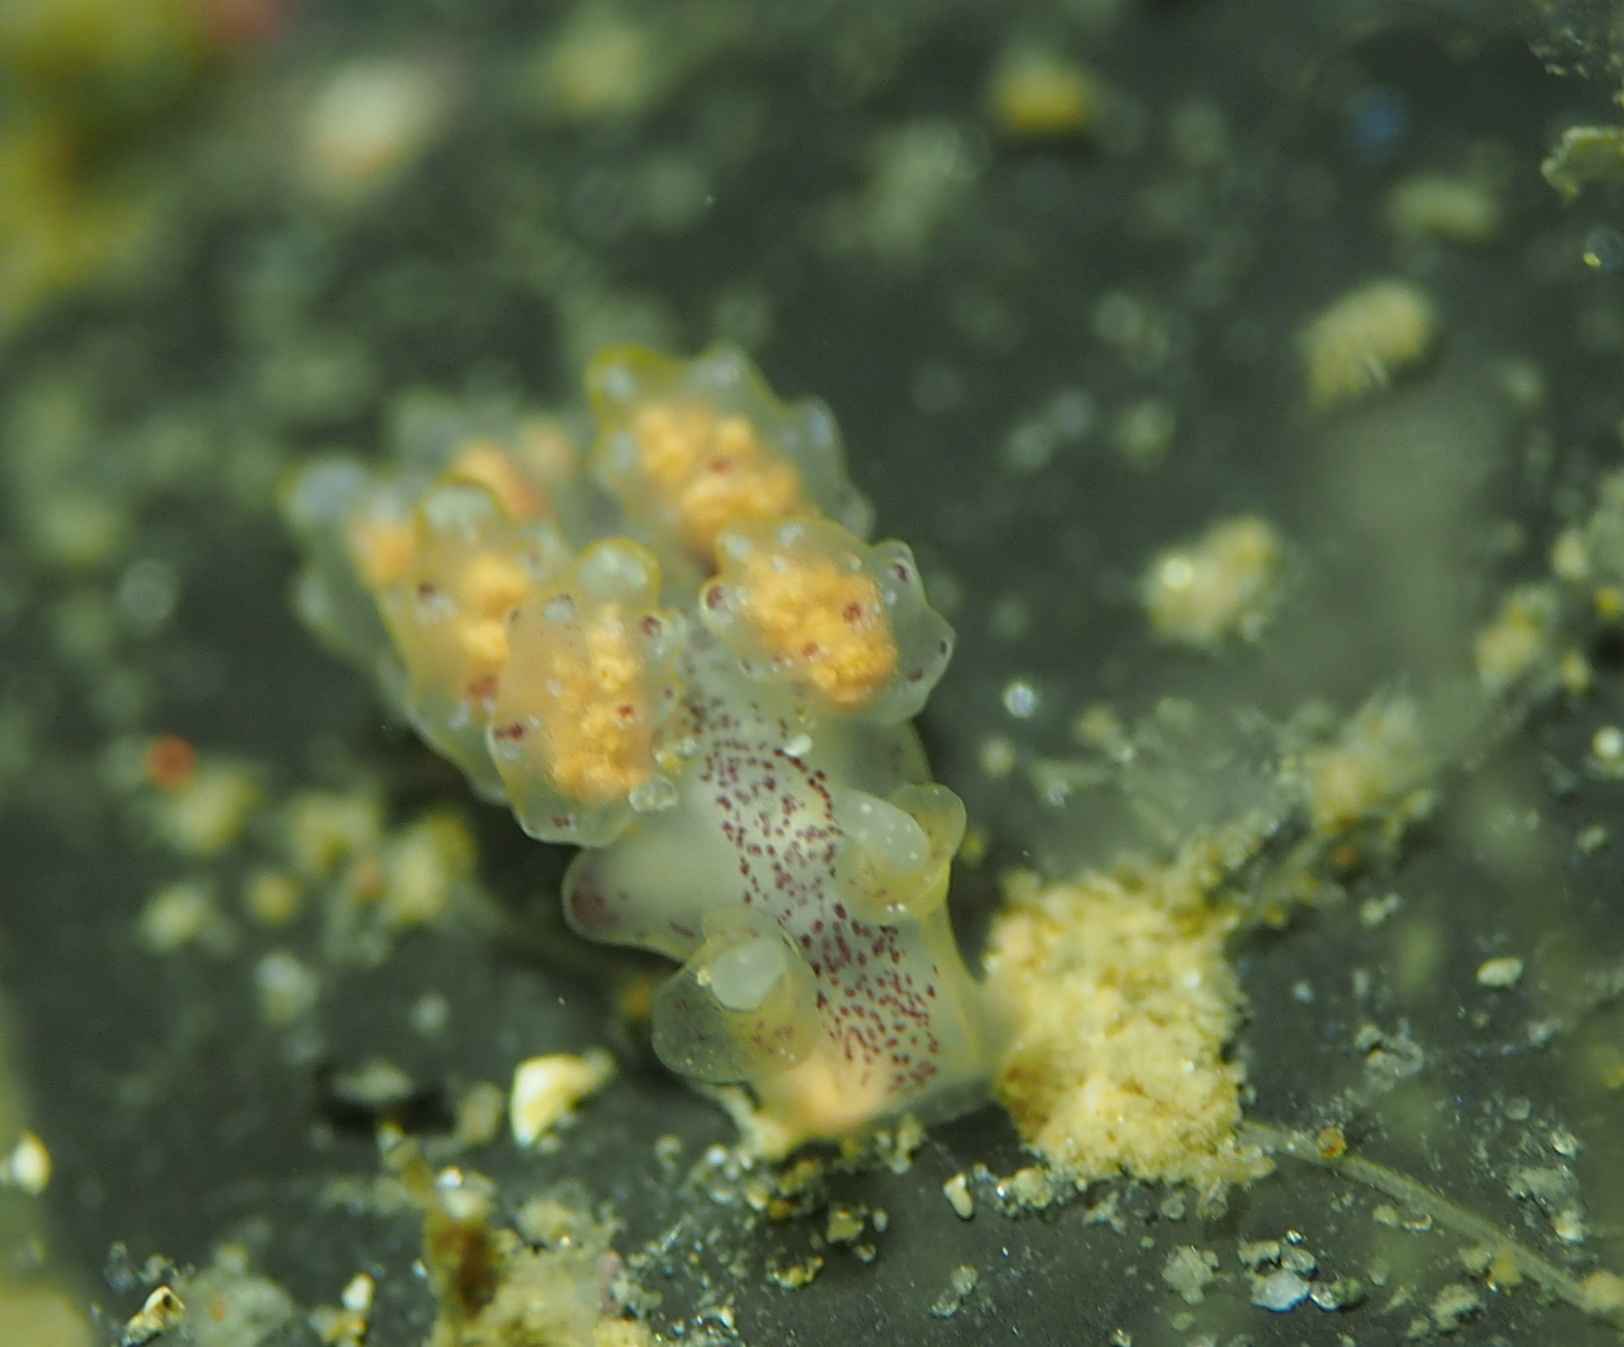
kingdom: Animalia
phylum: Mollusca
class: Gastropoda
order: Nudibranchia
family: Dotidae
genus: Doto
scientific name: Doto maculata
